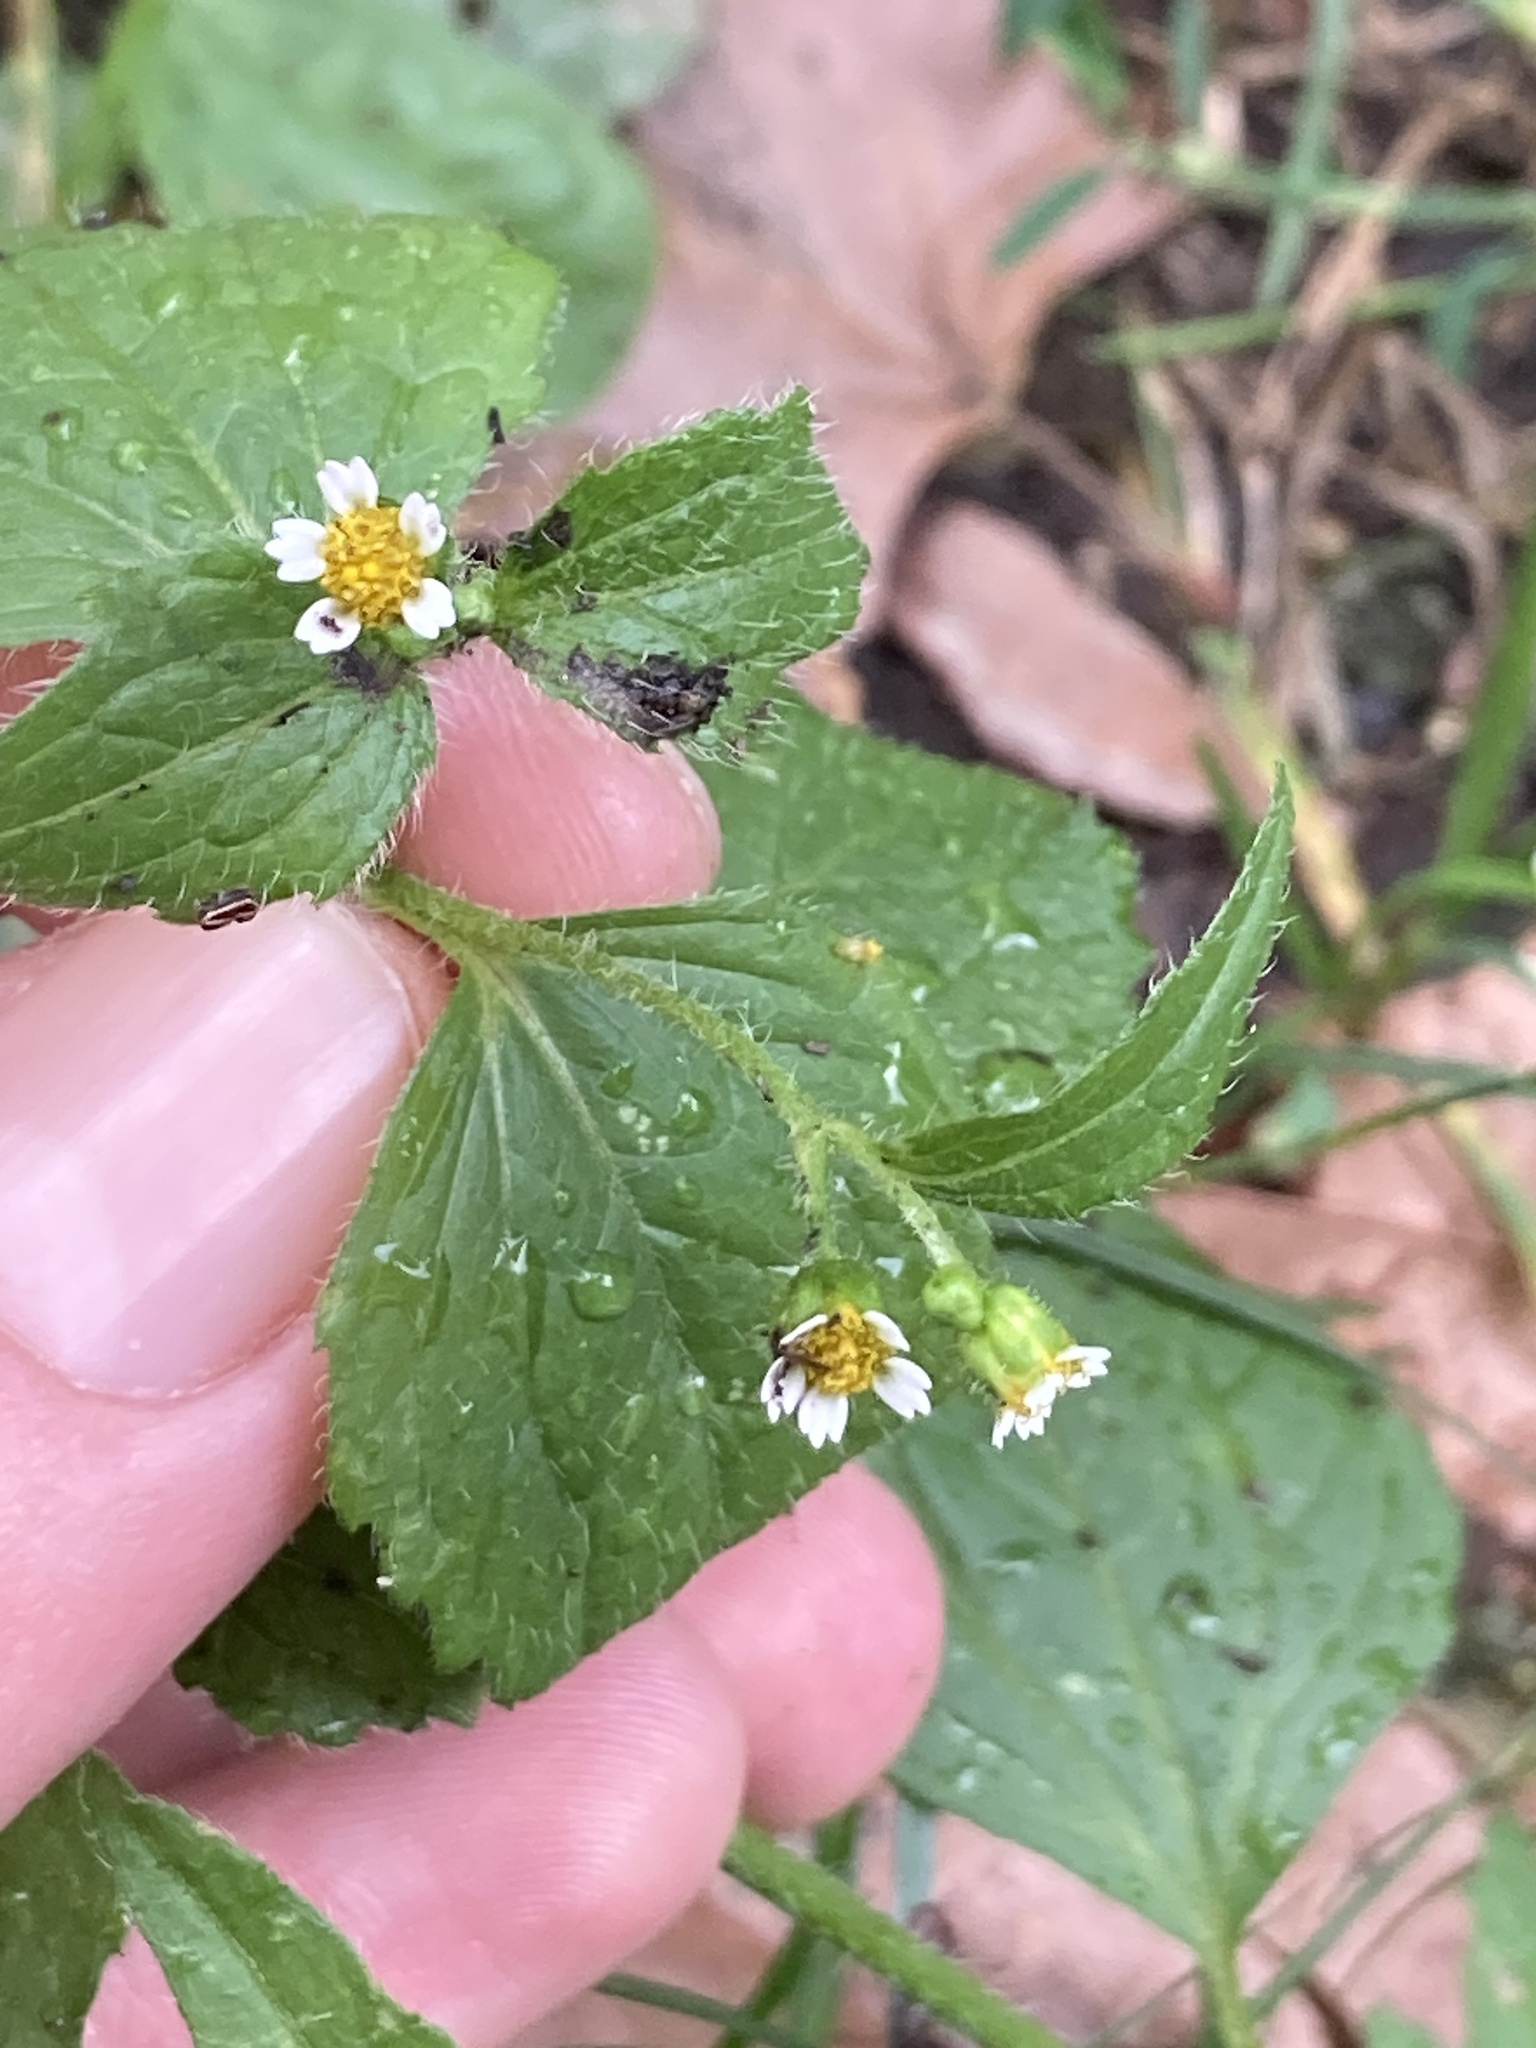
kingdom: Plantae
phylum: Tracheophyta
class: Magnoliopsida
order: Asterales
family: Asteraceae
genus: Galinsoga
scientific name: Galinsoga quadriradiata
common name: Shaggy soldier
